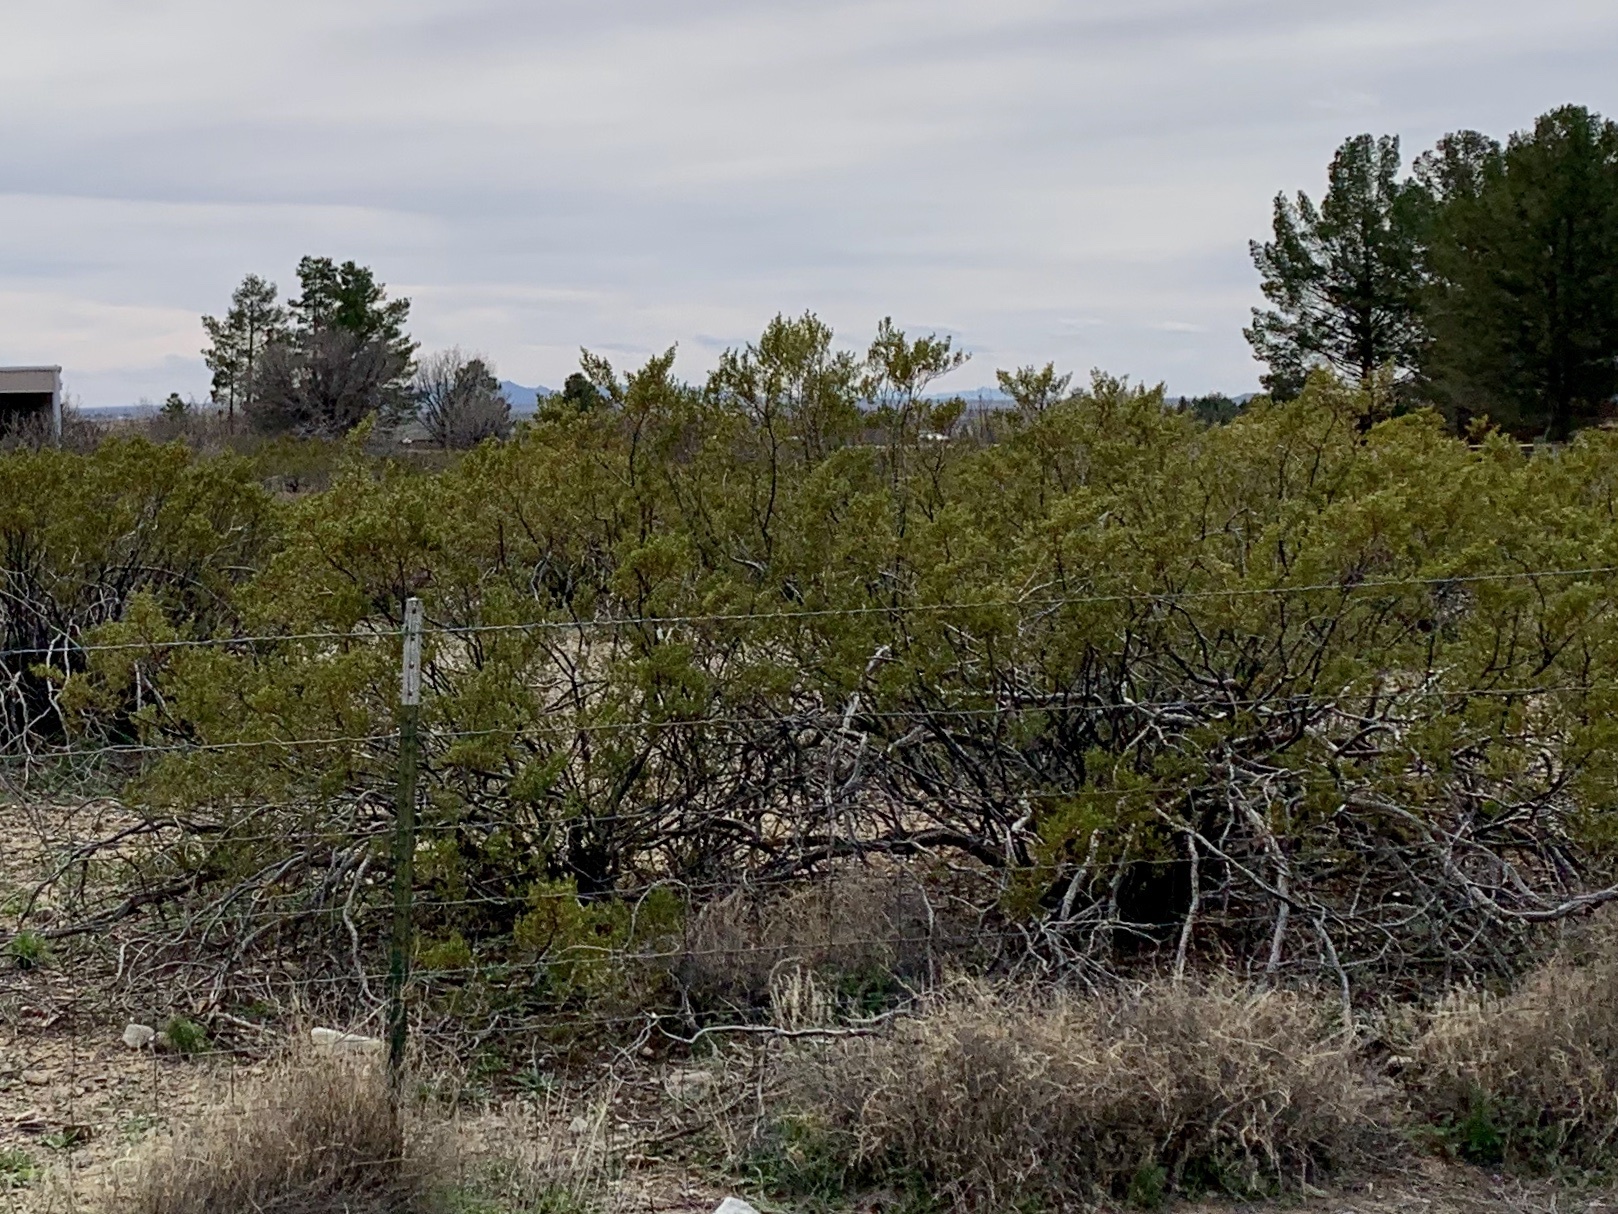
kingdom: Plantae
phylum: Tracheophyta
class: Magnoliopsida
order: Zygophyllales
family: Zygophyllaceae
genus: Larrea
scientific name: Larrea tridentata
